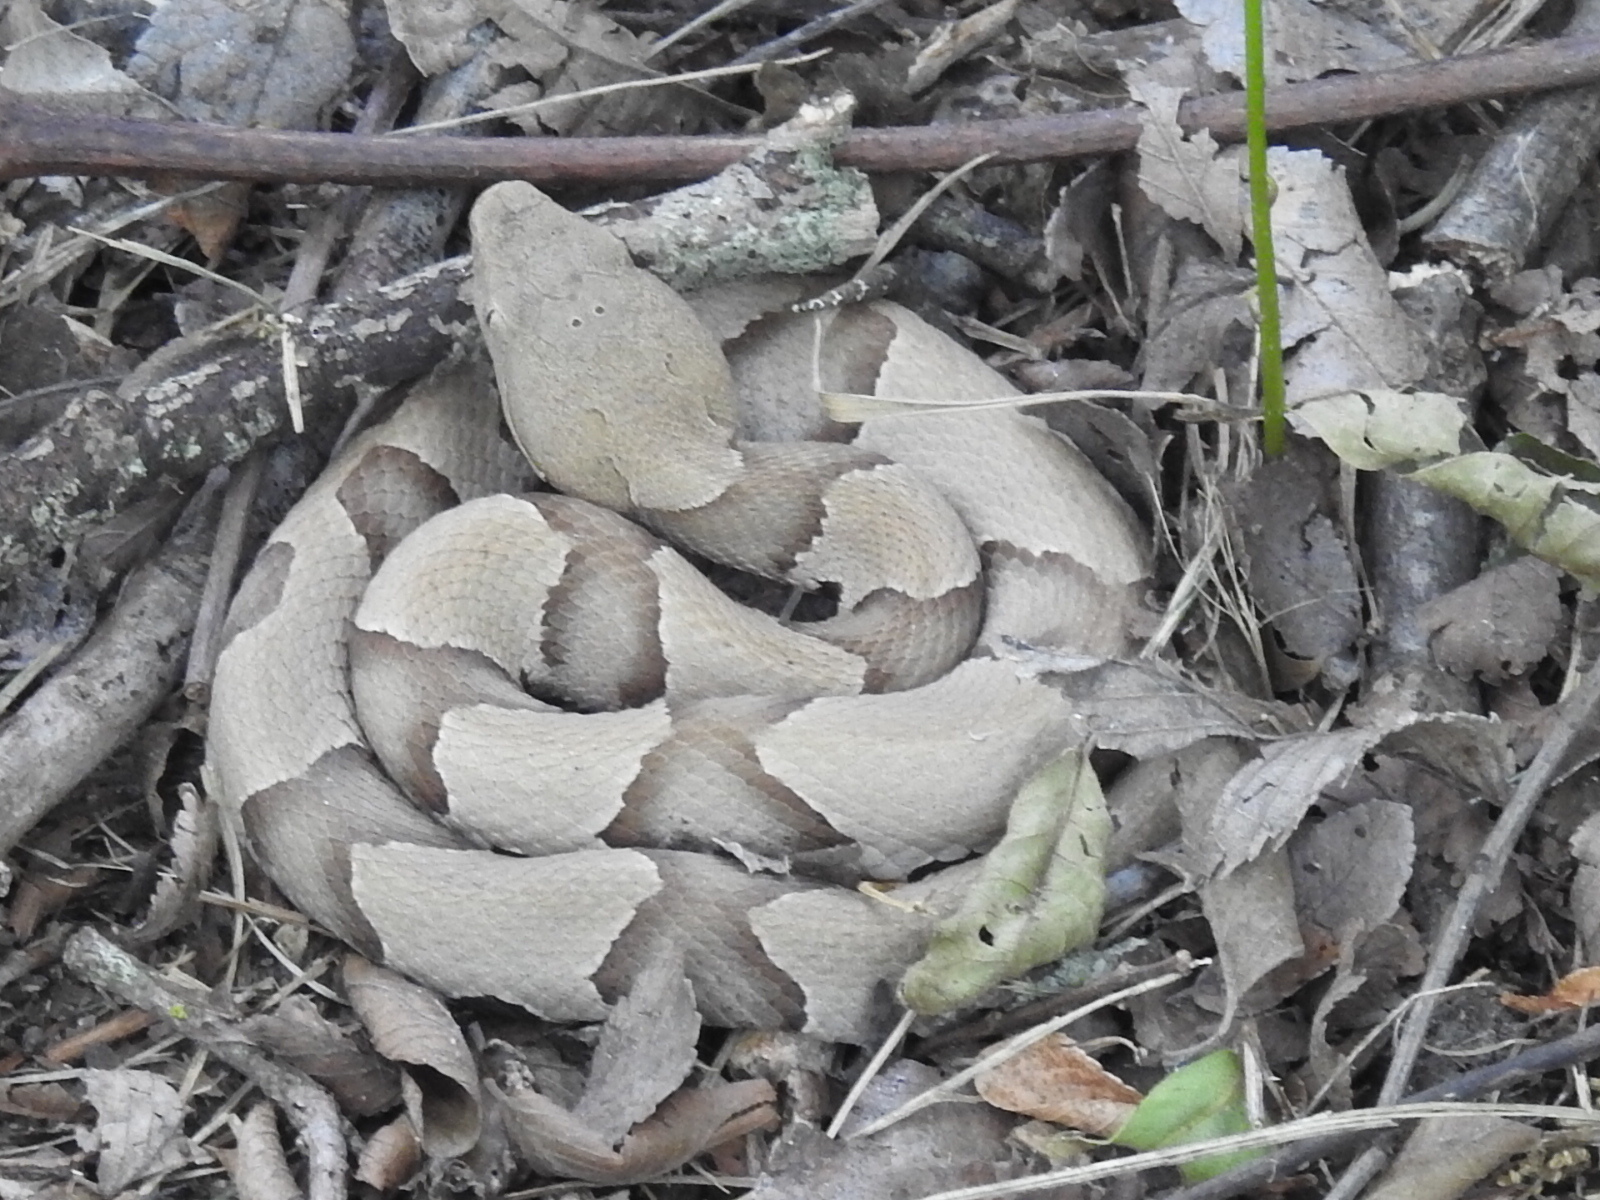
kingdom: Animalia
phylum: Chordata
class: Squamata
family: Viperidae
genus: Agkistrodon
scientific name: Agkistrodon laticinctus
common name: Broad-banded copperhead
